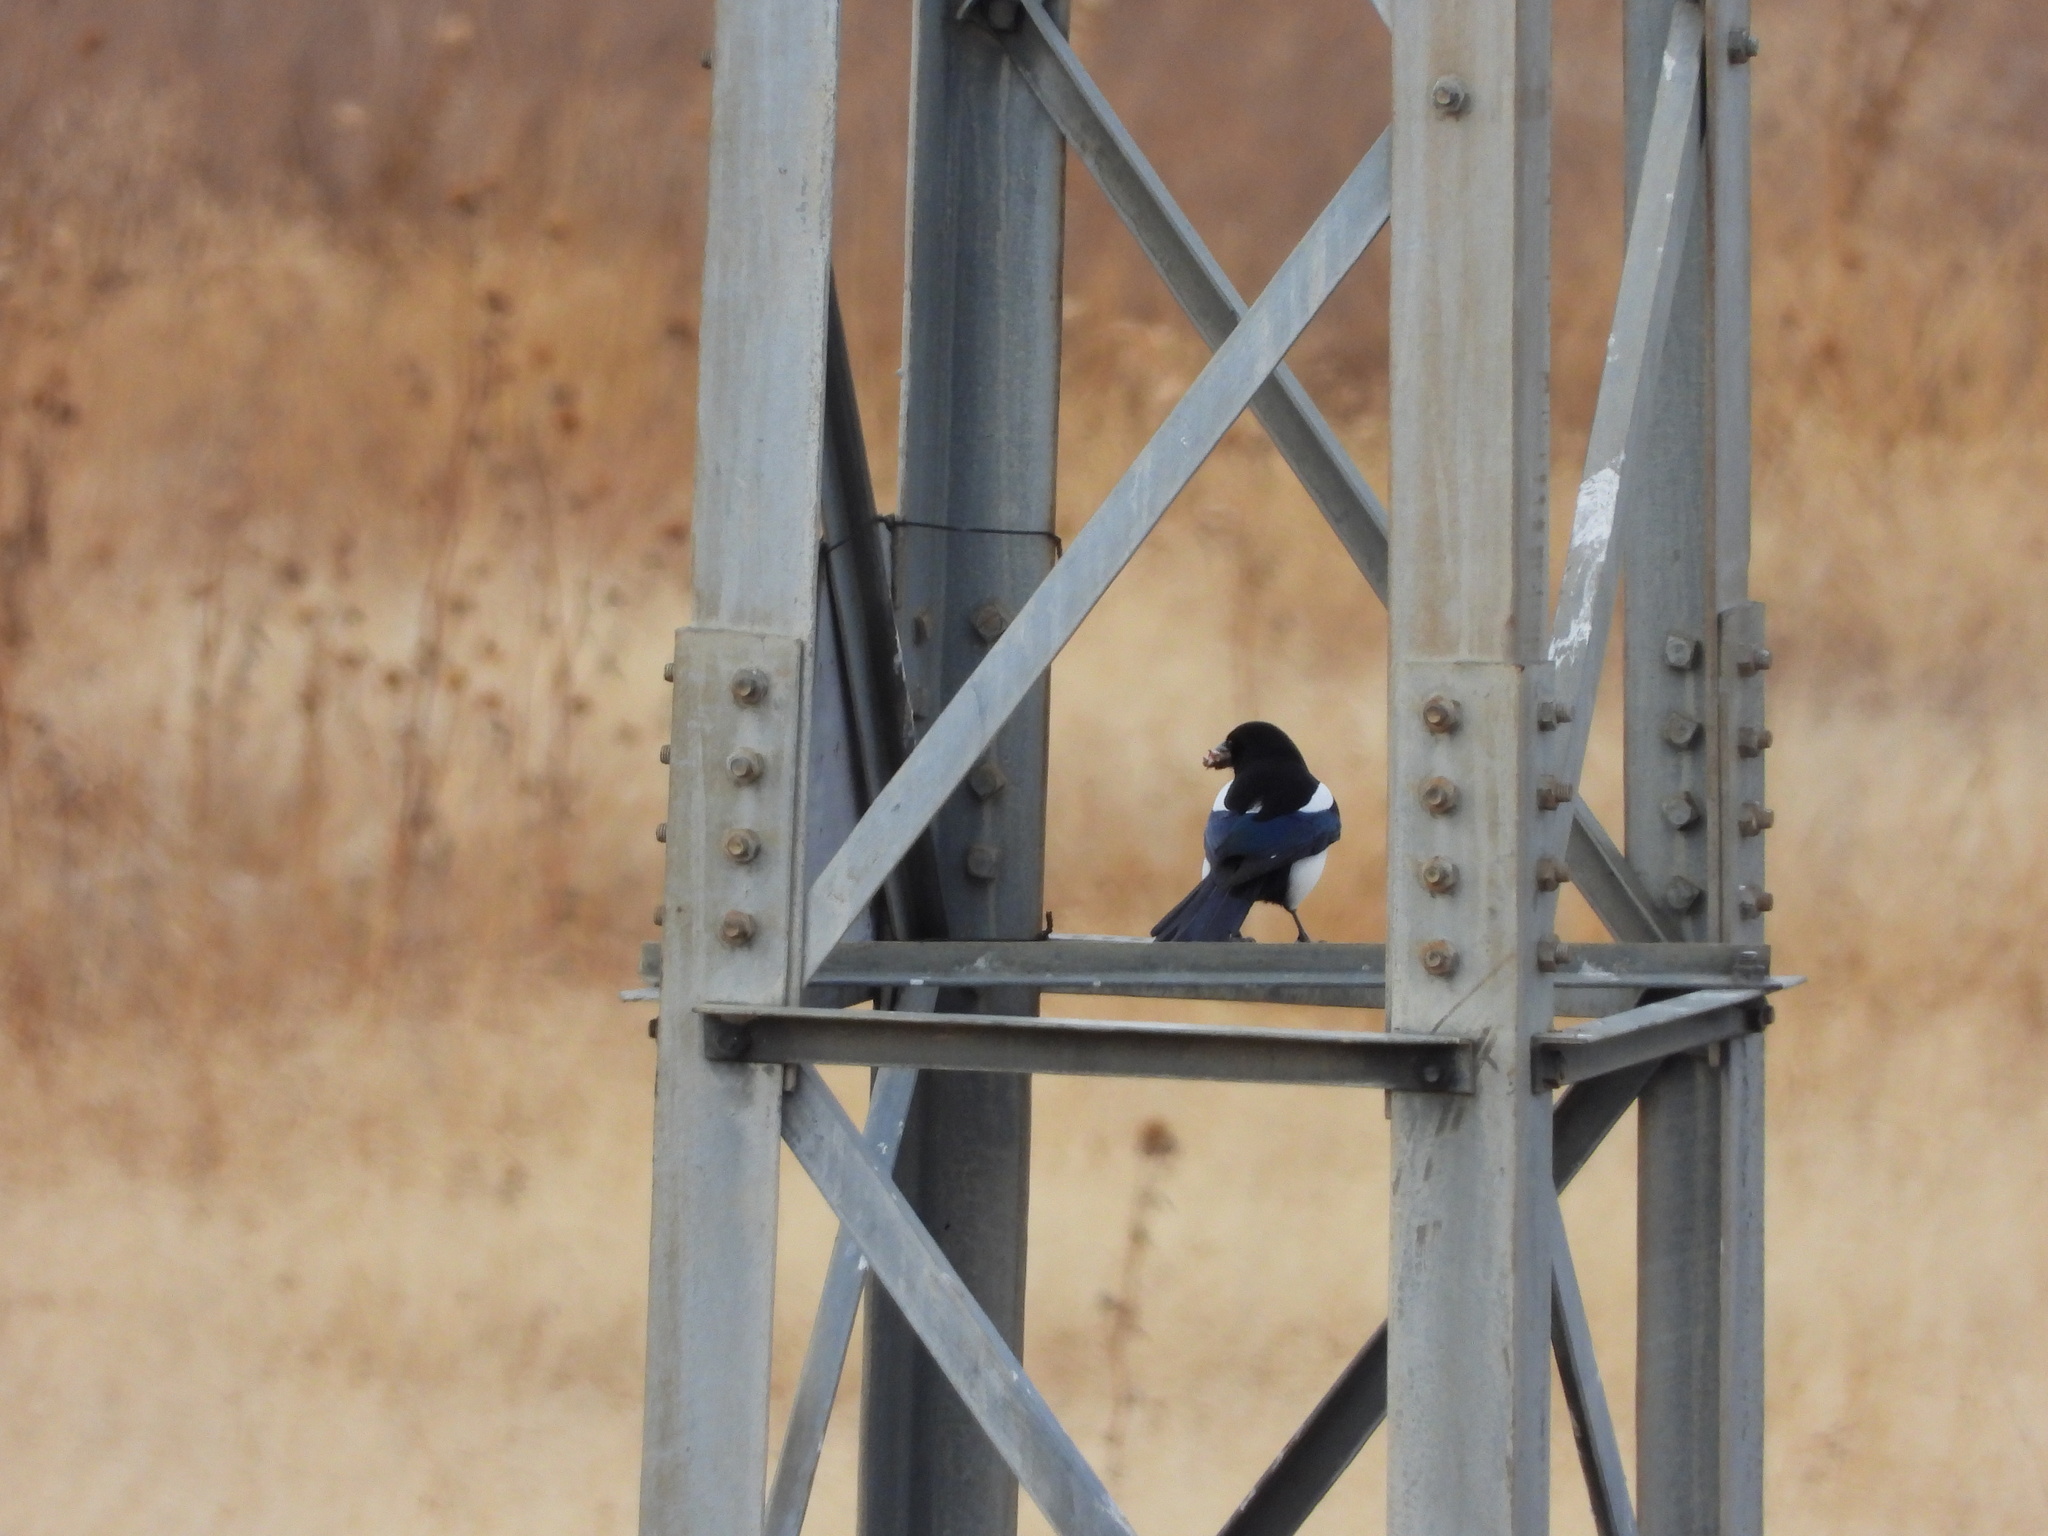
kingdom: Animalia
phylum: Chordata
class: Aves
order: Passeriformes
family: Corvidae
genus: Pica
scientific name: Pica hudsonia
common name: Black-billed magpie
